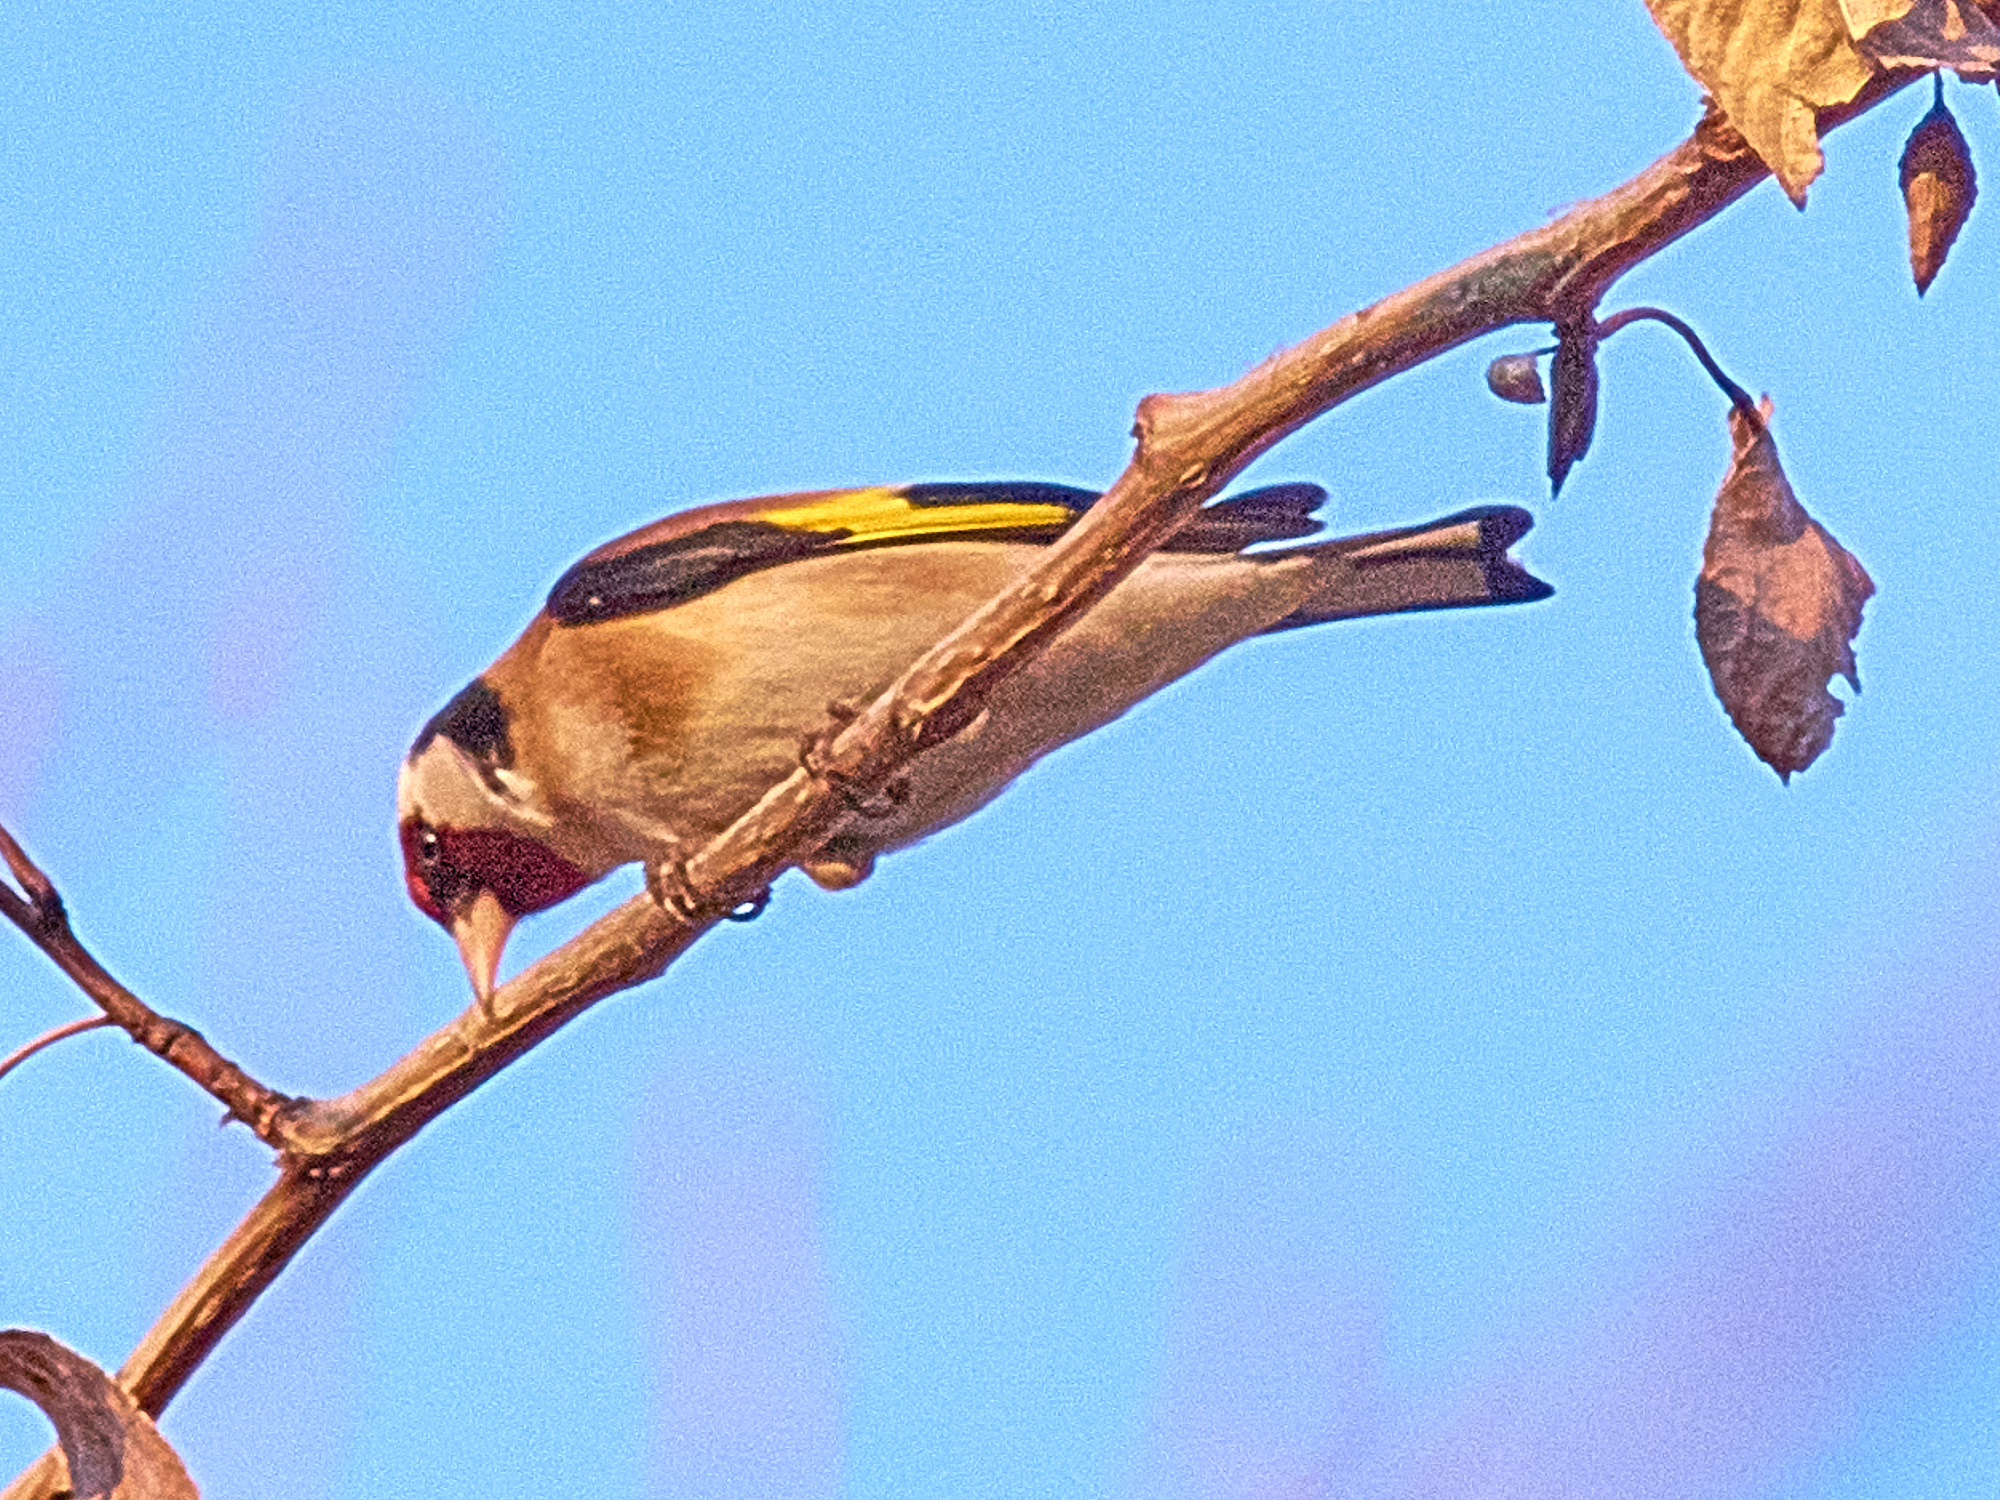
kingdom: Animalia
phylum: Chordata
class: Aves
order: Passeriformes
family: Fringillidae
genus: Carduelis
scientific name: Carduelis carduelis
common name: European goldfinch
